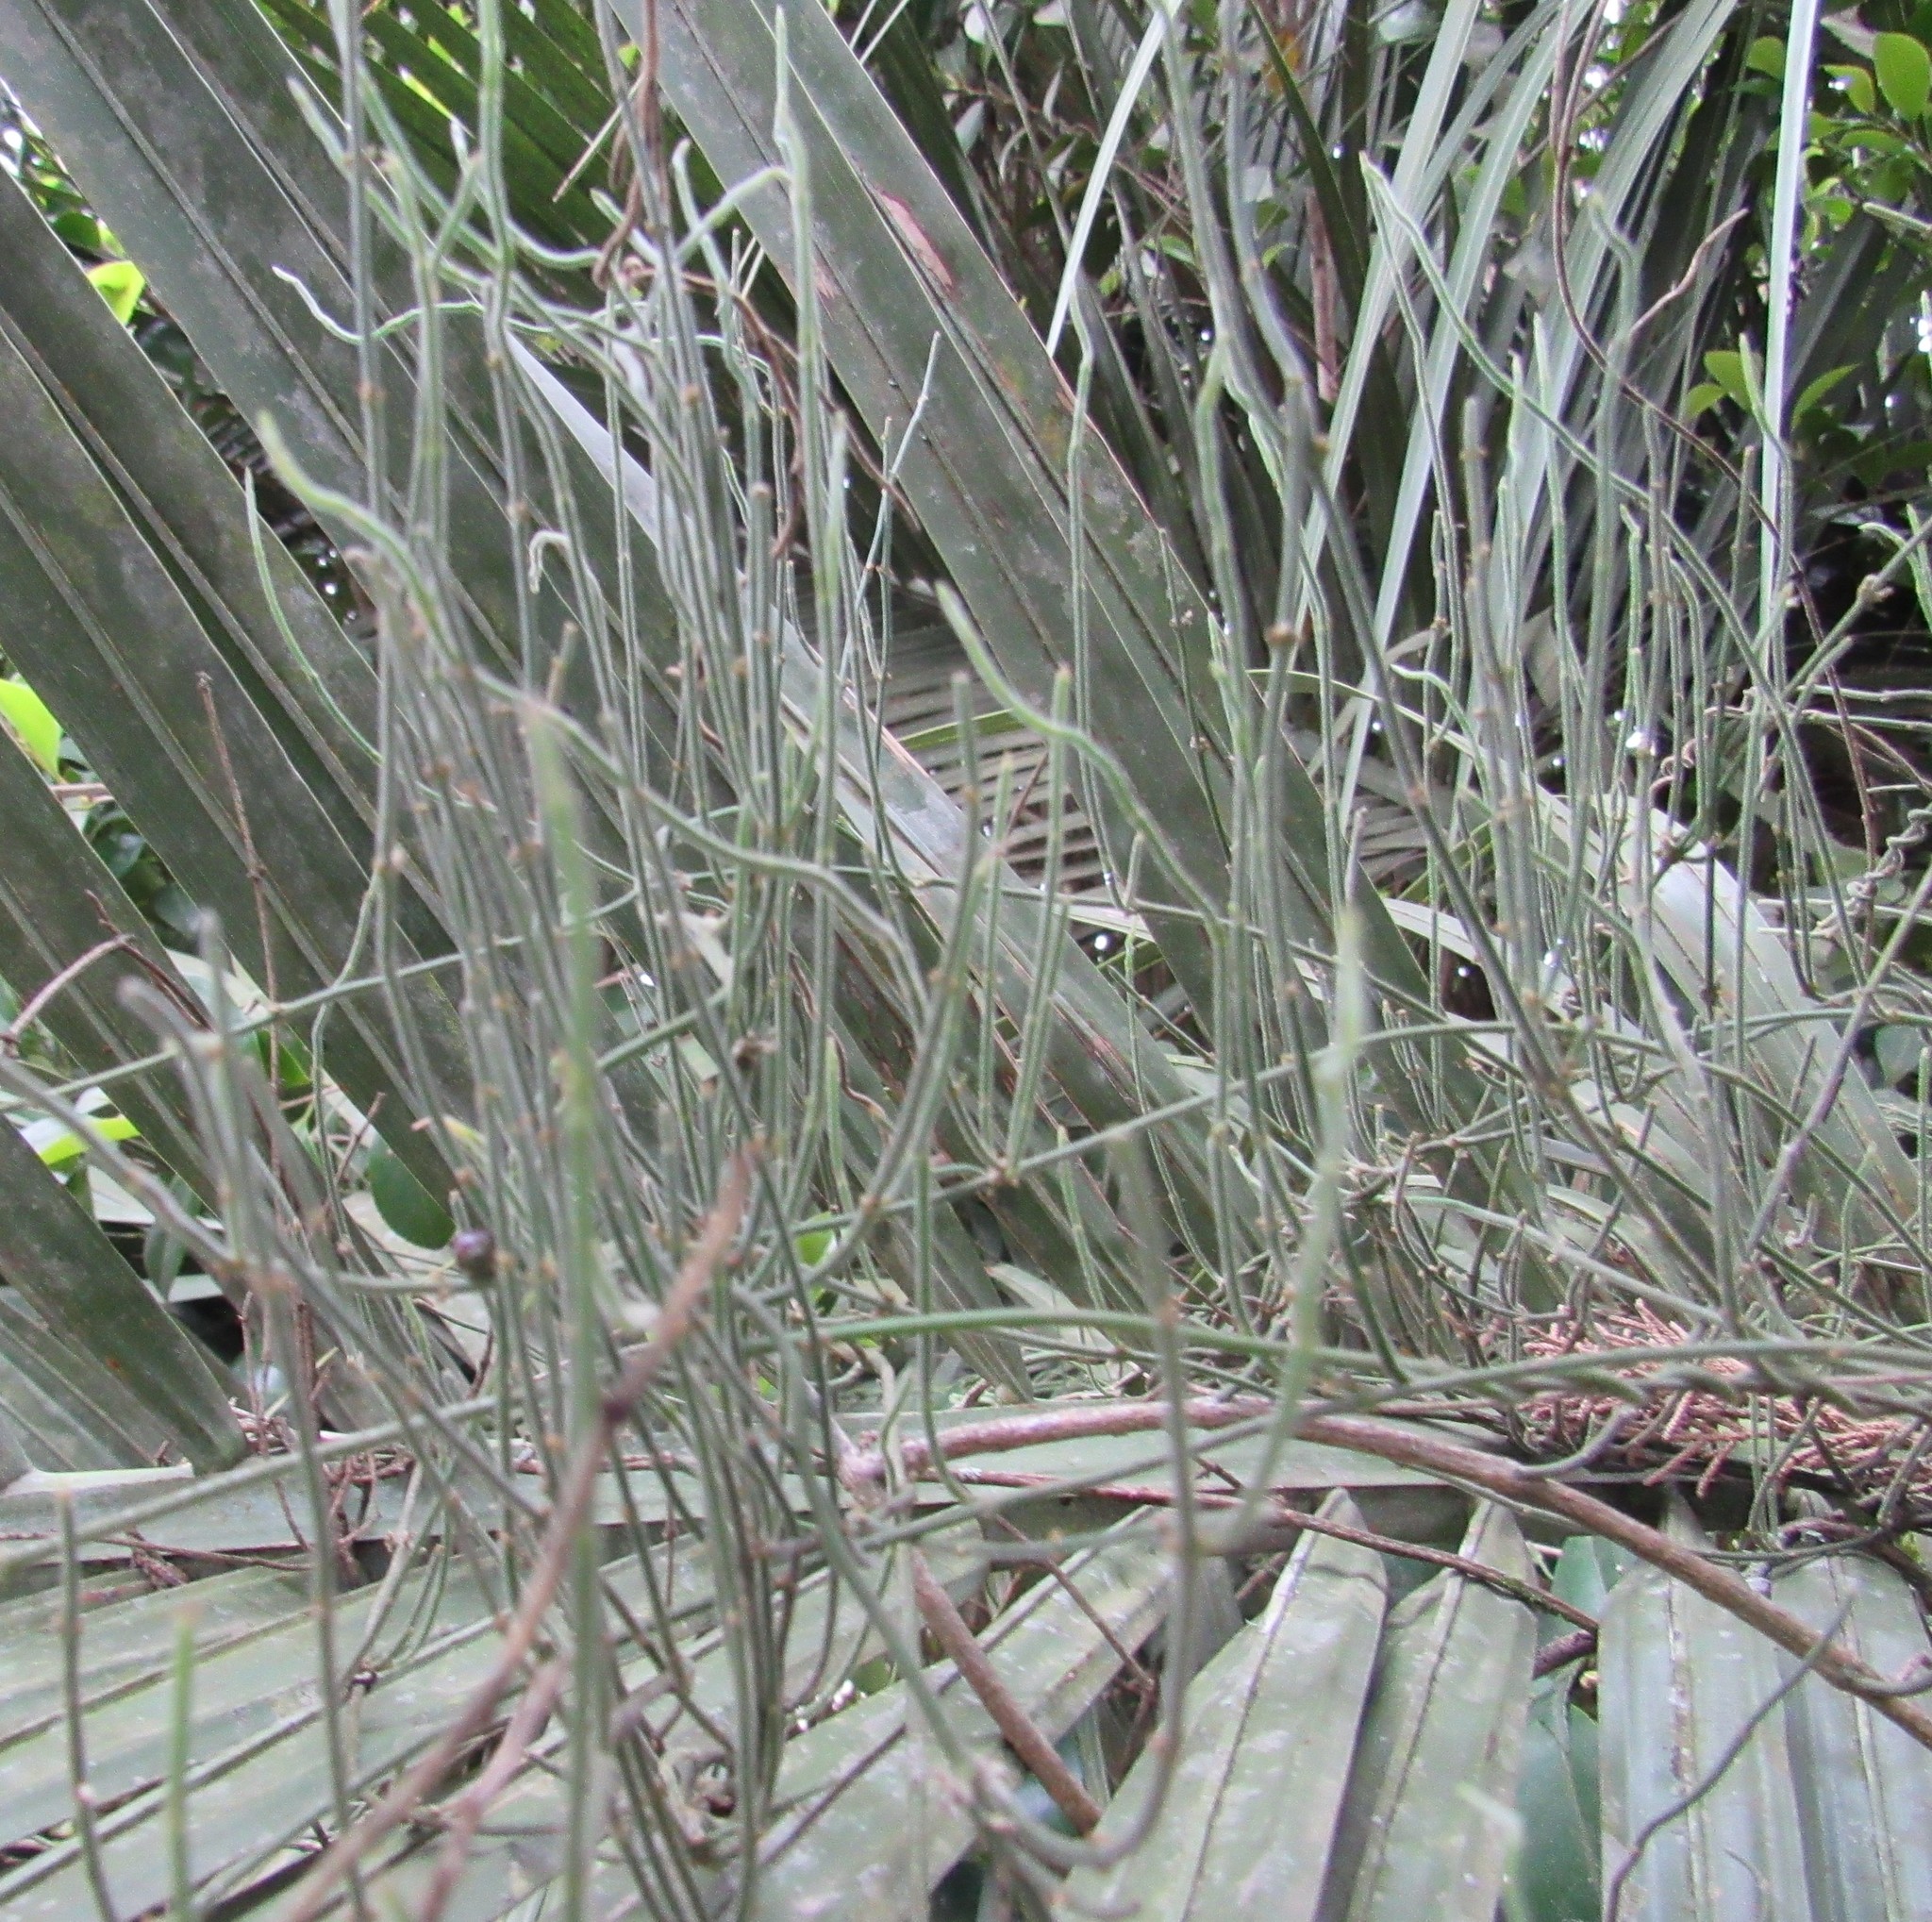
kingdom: Plantae
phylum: Tracheophyta
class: Magnoliopsida
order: Gentianales
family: Apocynaceae
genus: Orthosia
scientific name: Orthosia scoparia
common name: Leafless swallow-wort
